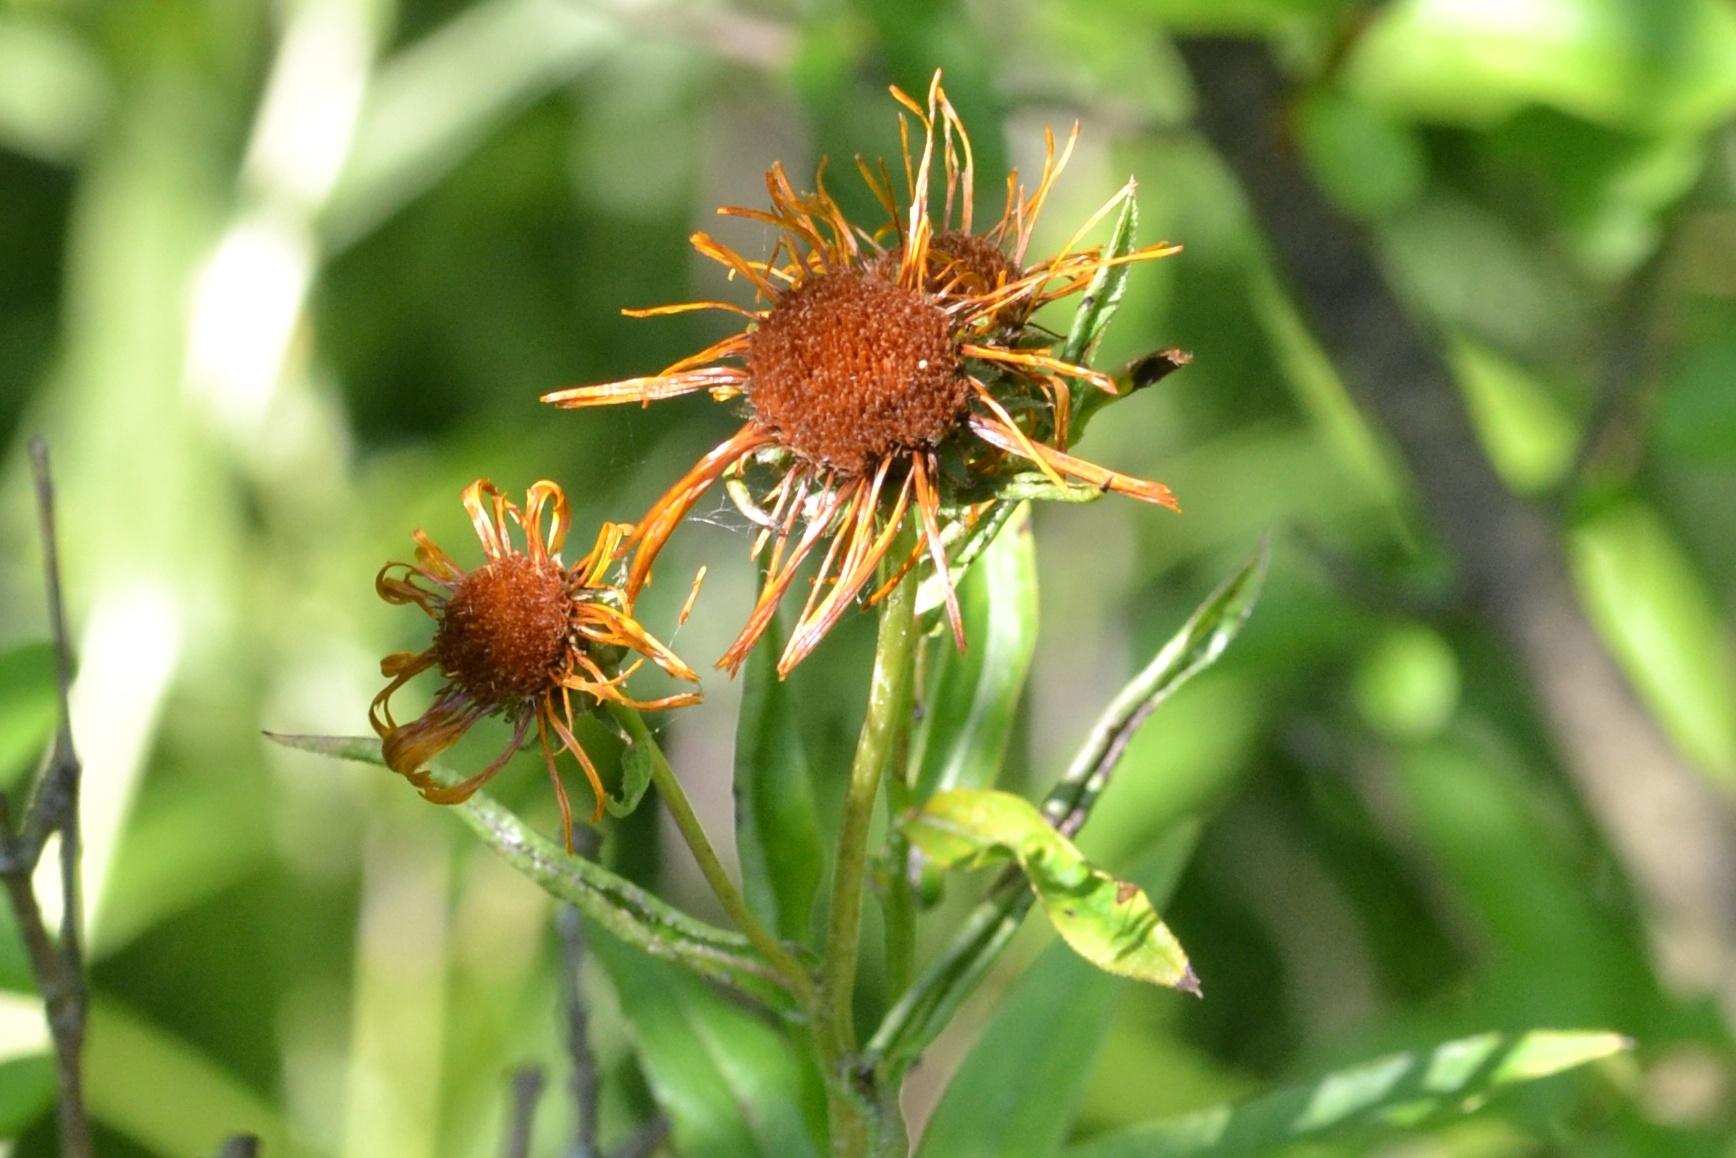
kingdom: Plantae
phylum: Tracheophyta
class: Magnoliopsida
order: Asterales
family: Asteraceae
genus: Pentanema
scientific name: Pentanema salicinum
